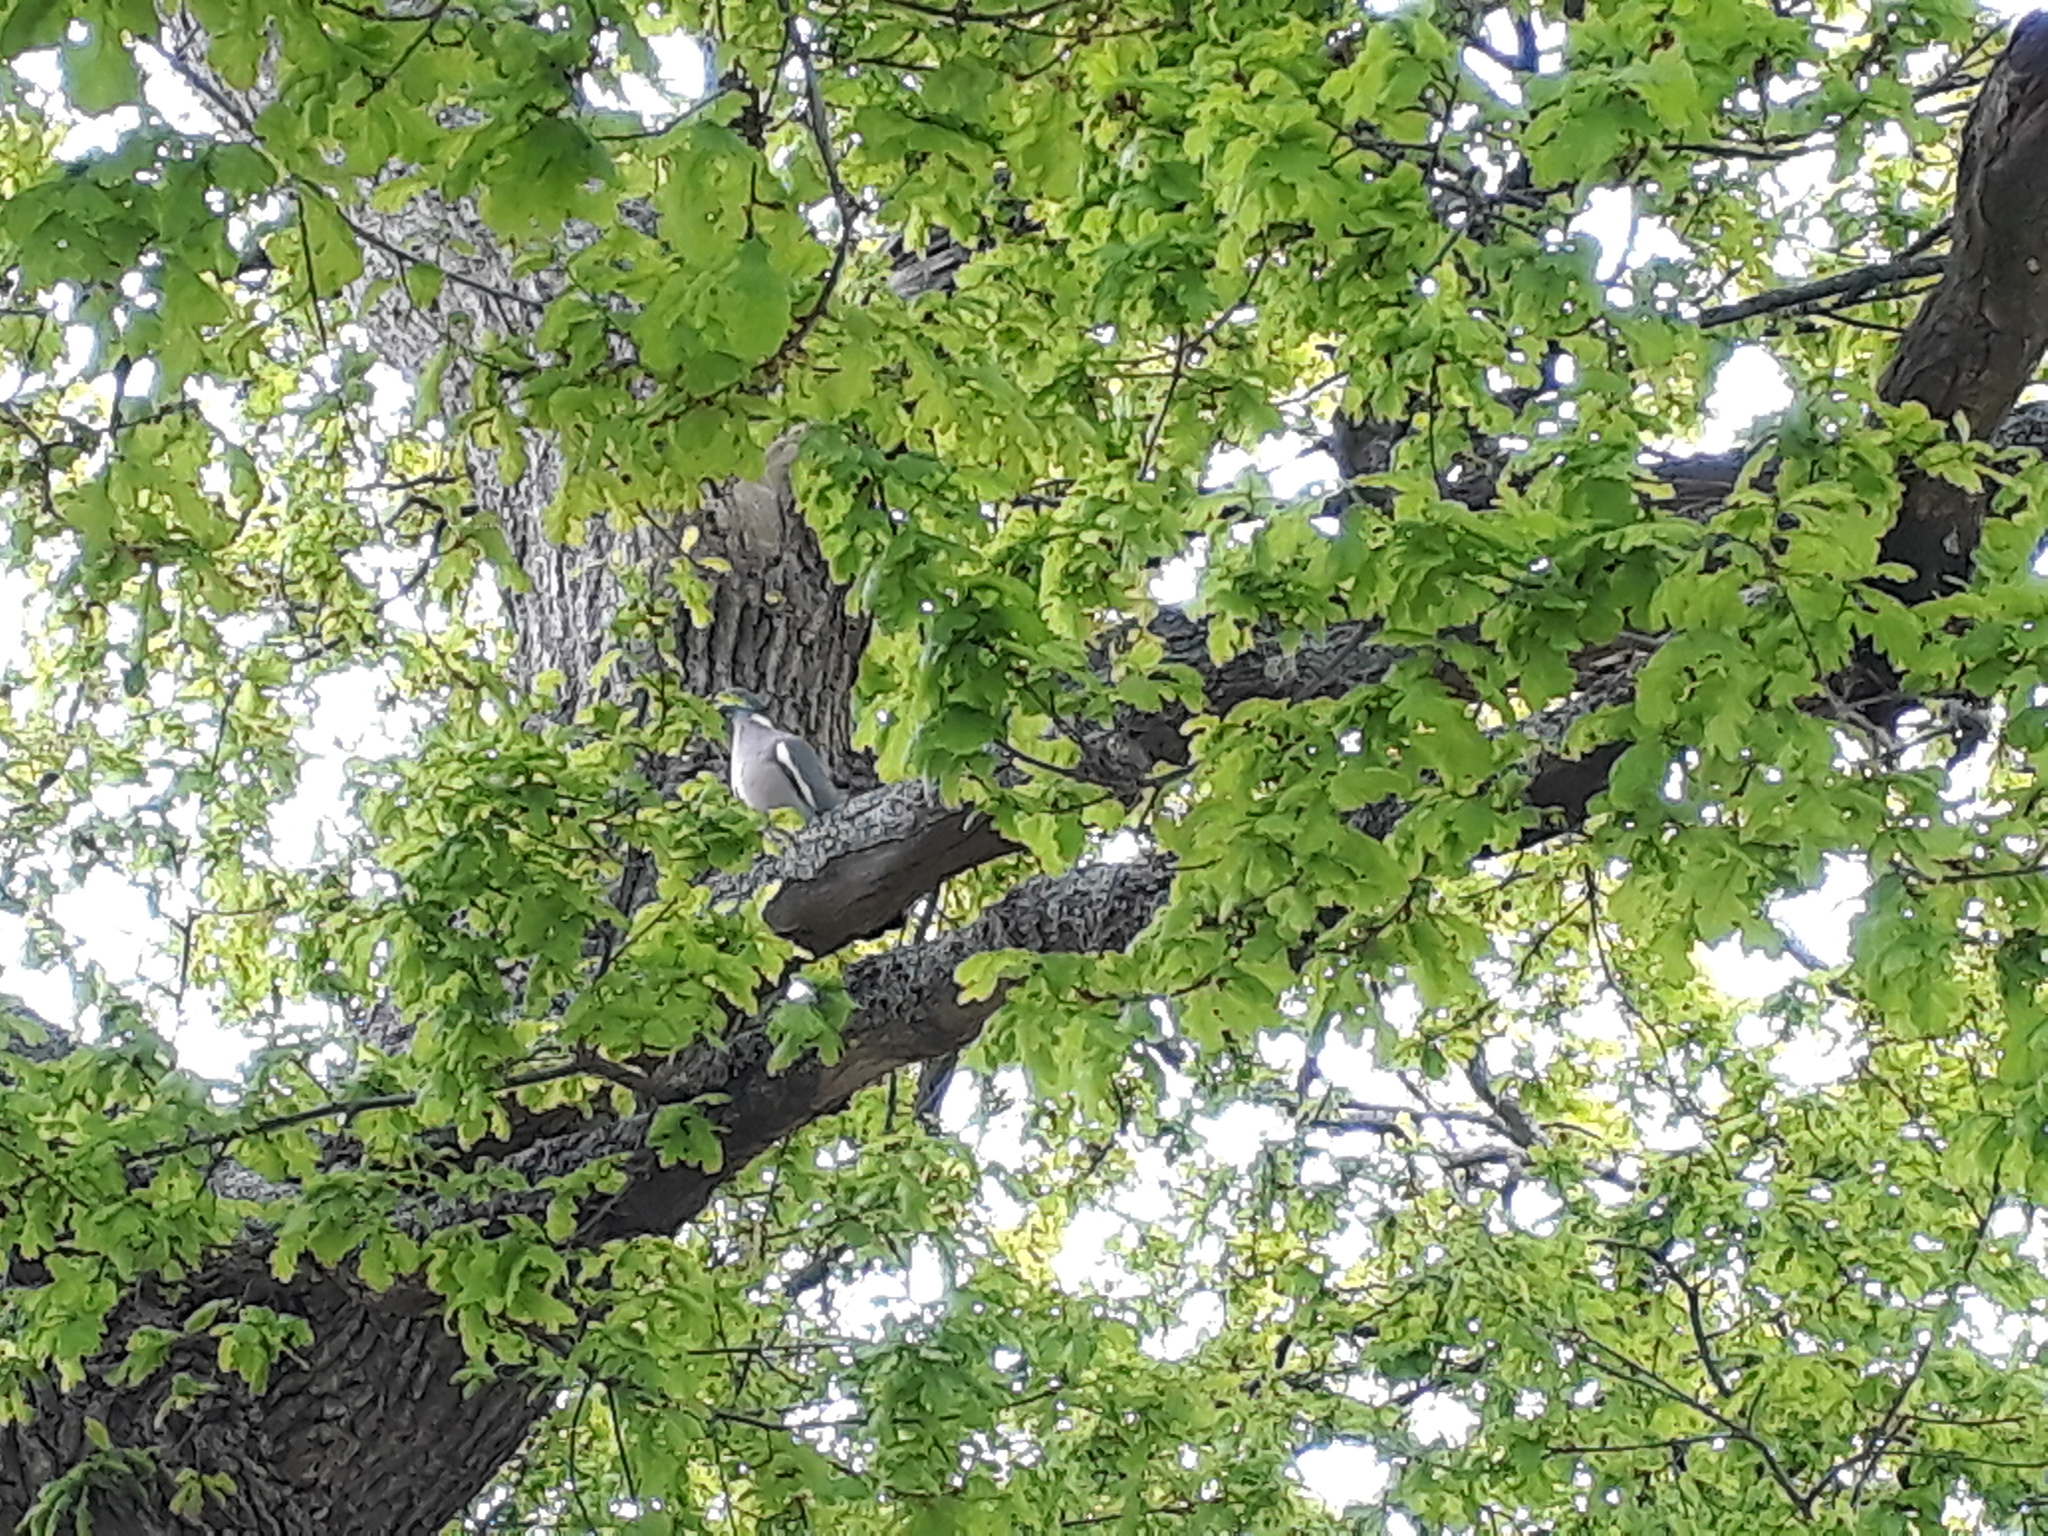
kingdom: Animalia
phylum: Chordata
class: Aves
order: Columbiformes
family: Columbidae
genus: Columba
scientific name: Columba palumbus
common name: Common wood pigeon
